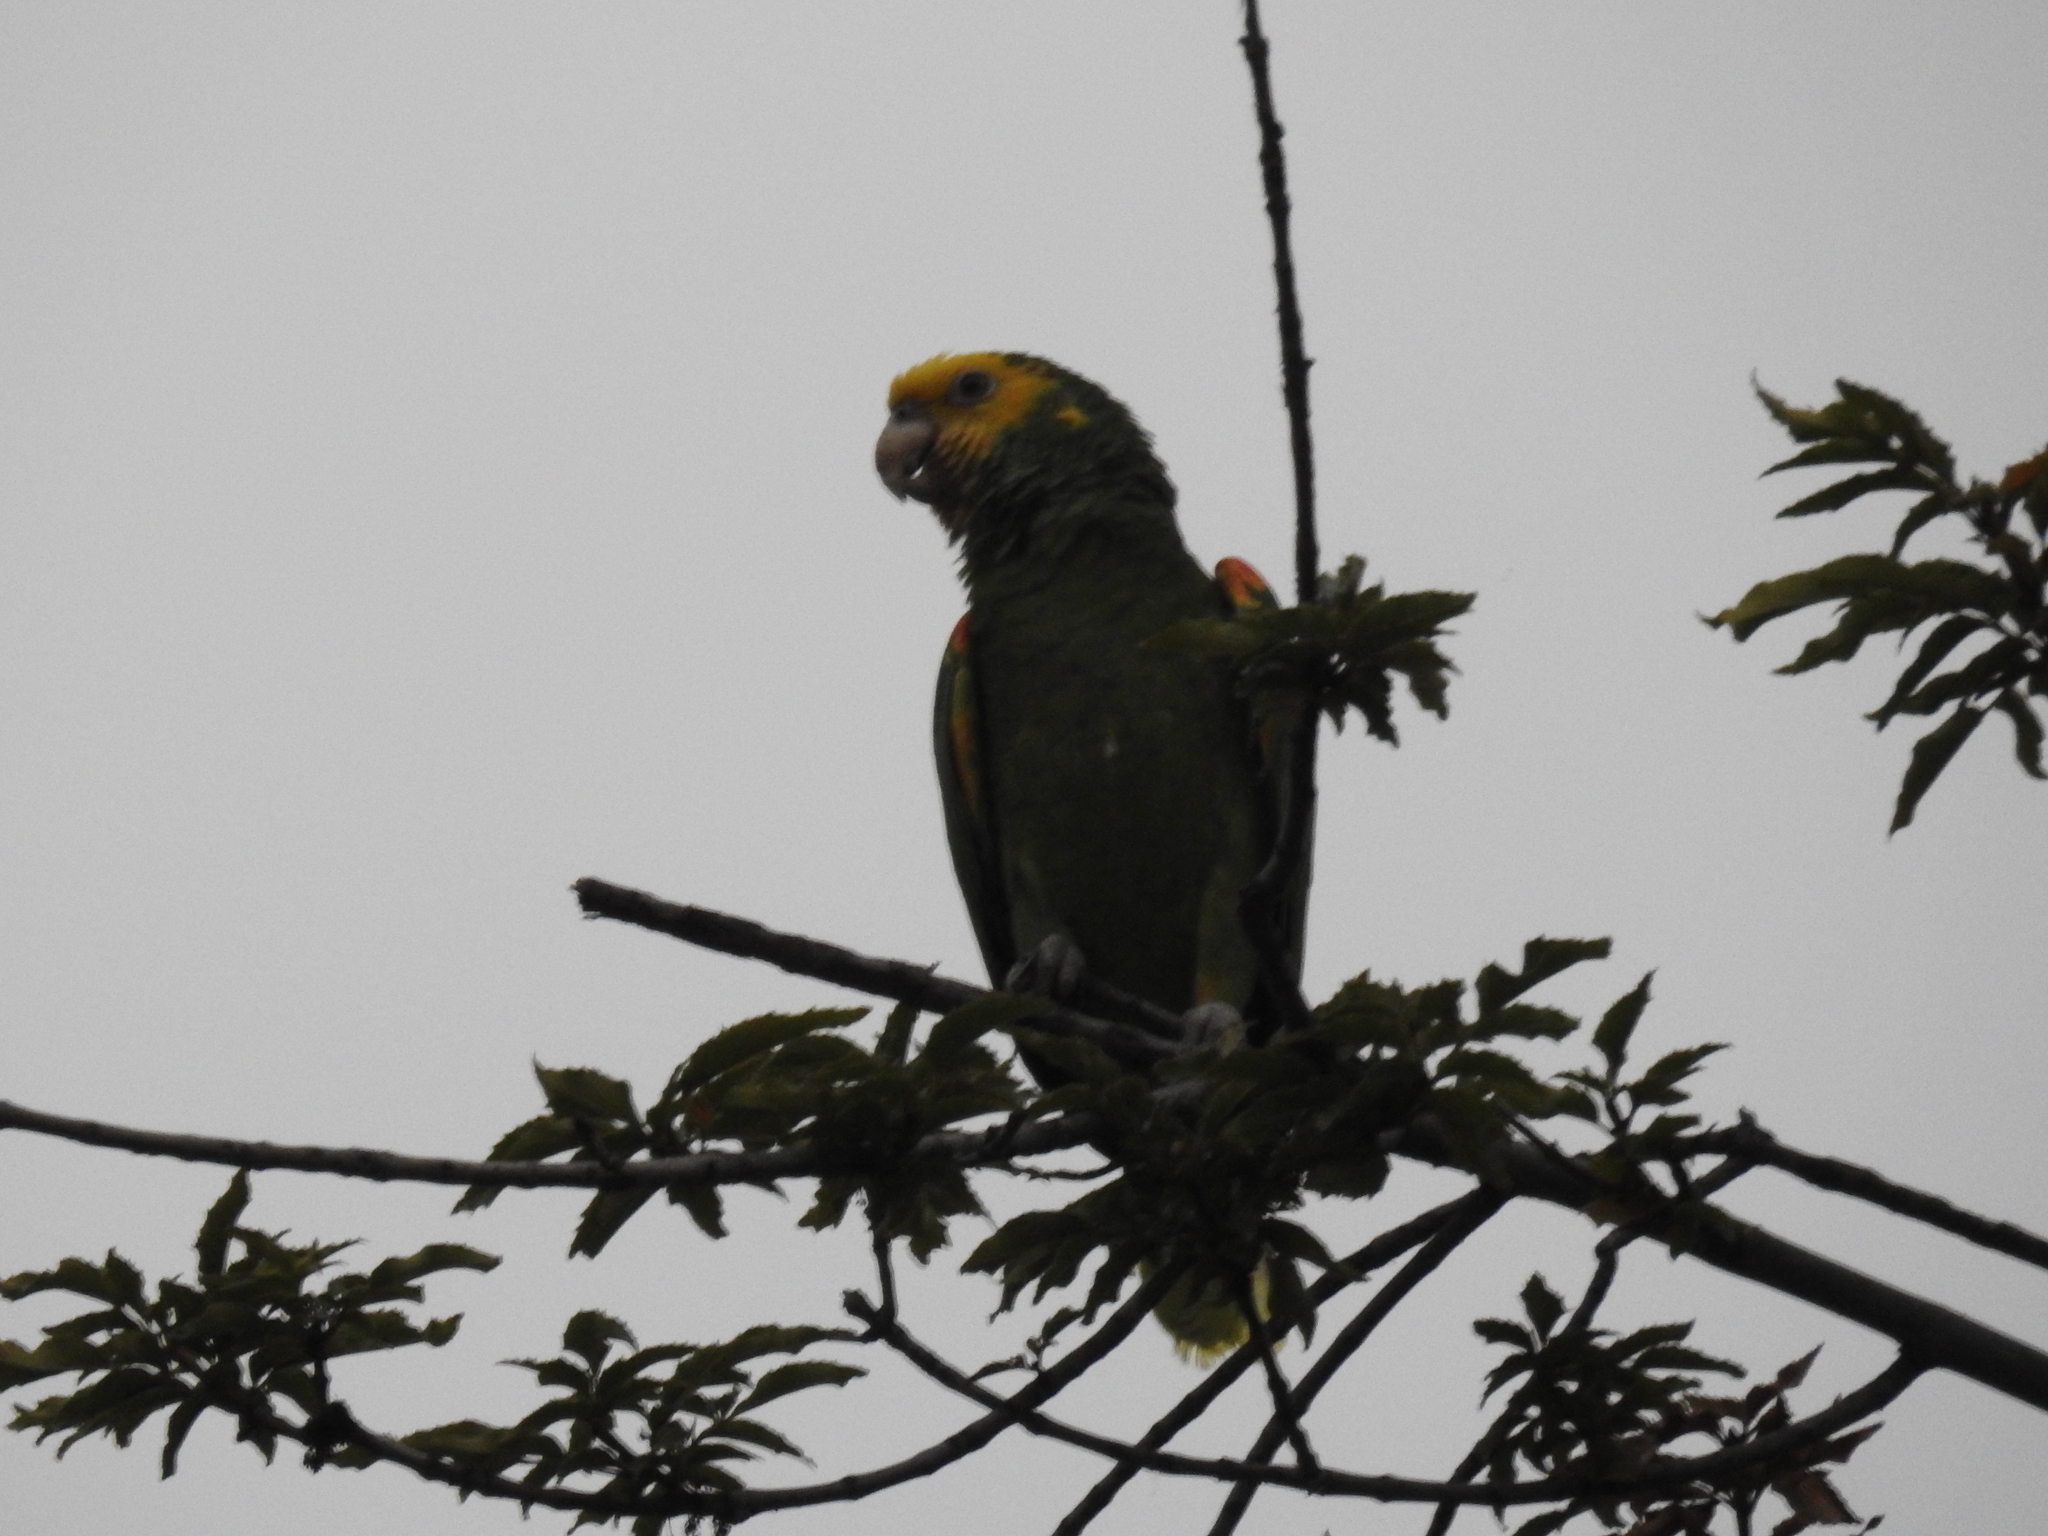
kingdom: Animalia
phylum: Chordata
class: Aves
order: Psittaciformes
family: Psittacidae
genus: Amazona
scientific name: Amazona oratrix
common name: Yellow-headed amazon
